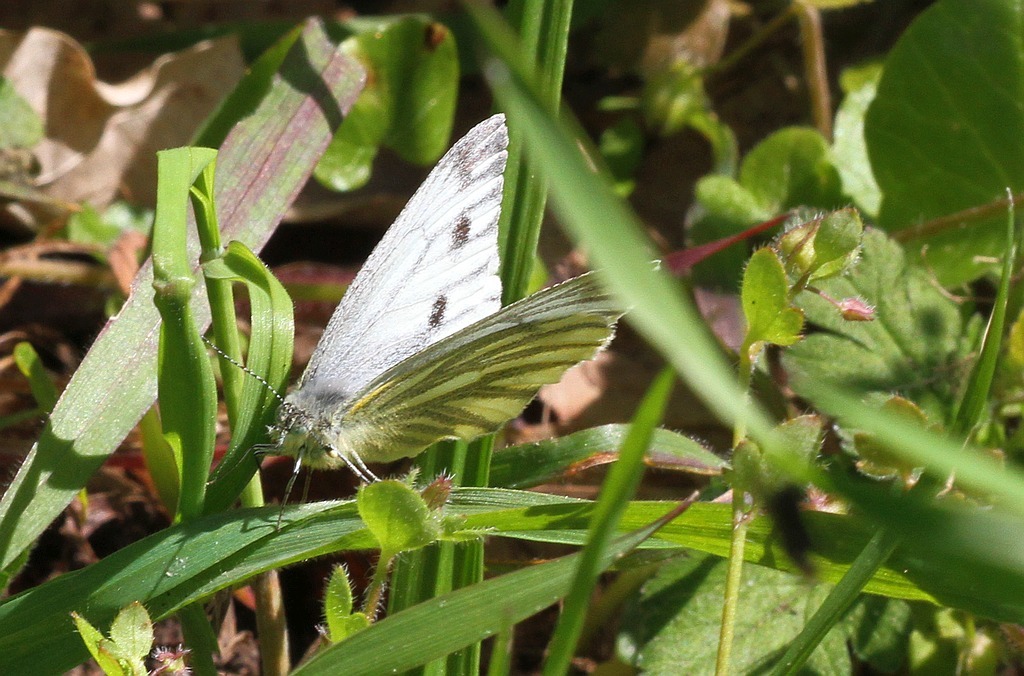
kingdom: Animalia
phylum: Arthropoda
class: Insecta
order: Lepidoptera
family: Pieridae
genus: Pieris
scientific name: Pieris napi
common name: Green-veined white
